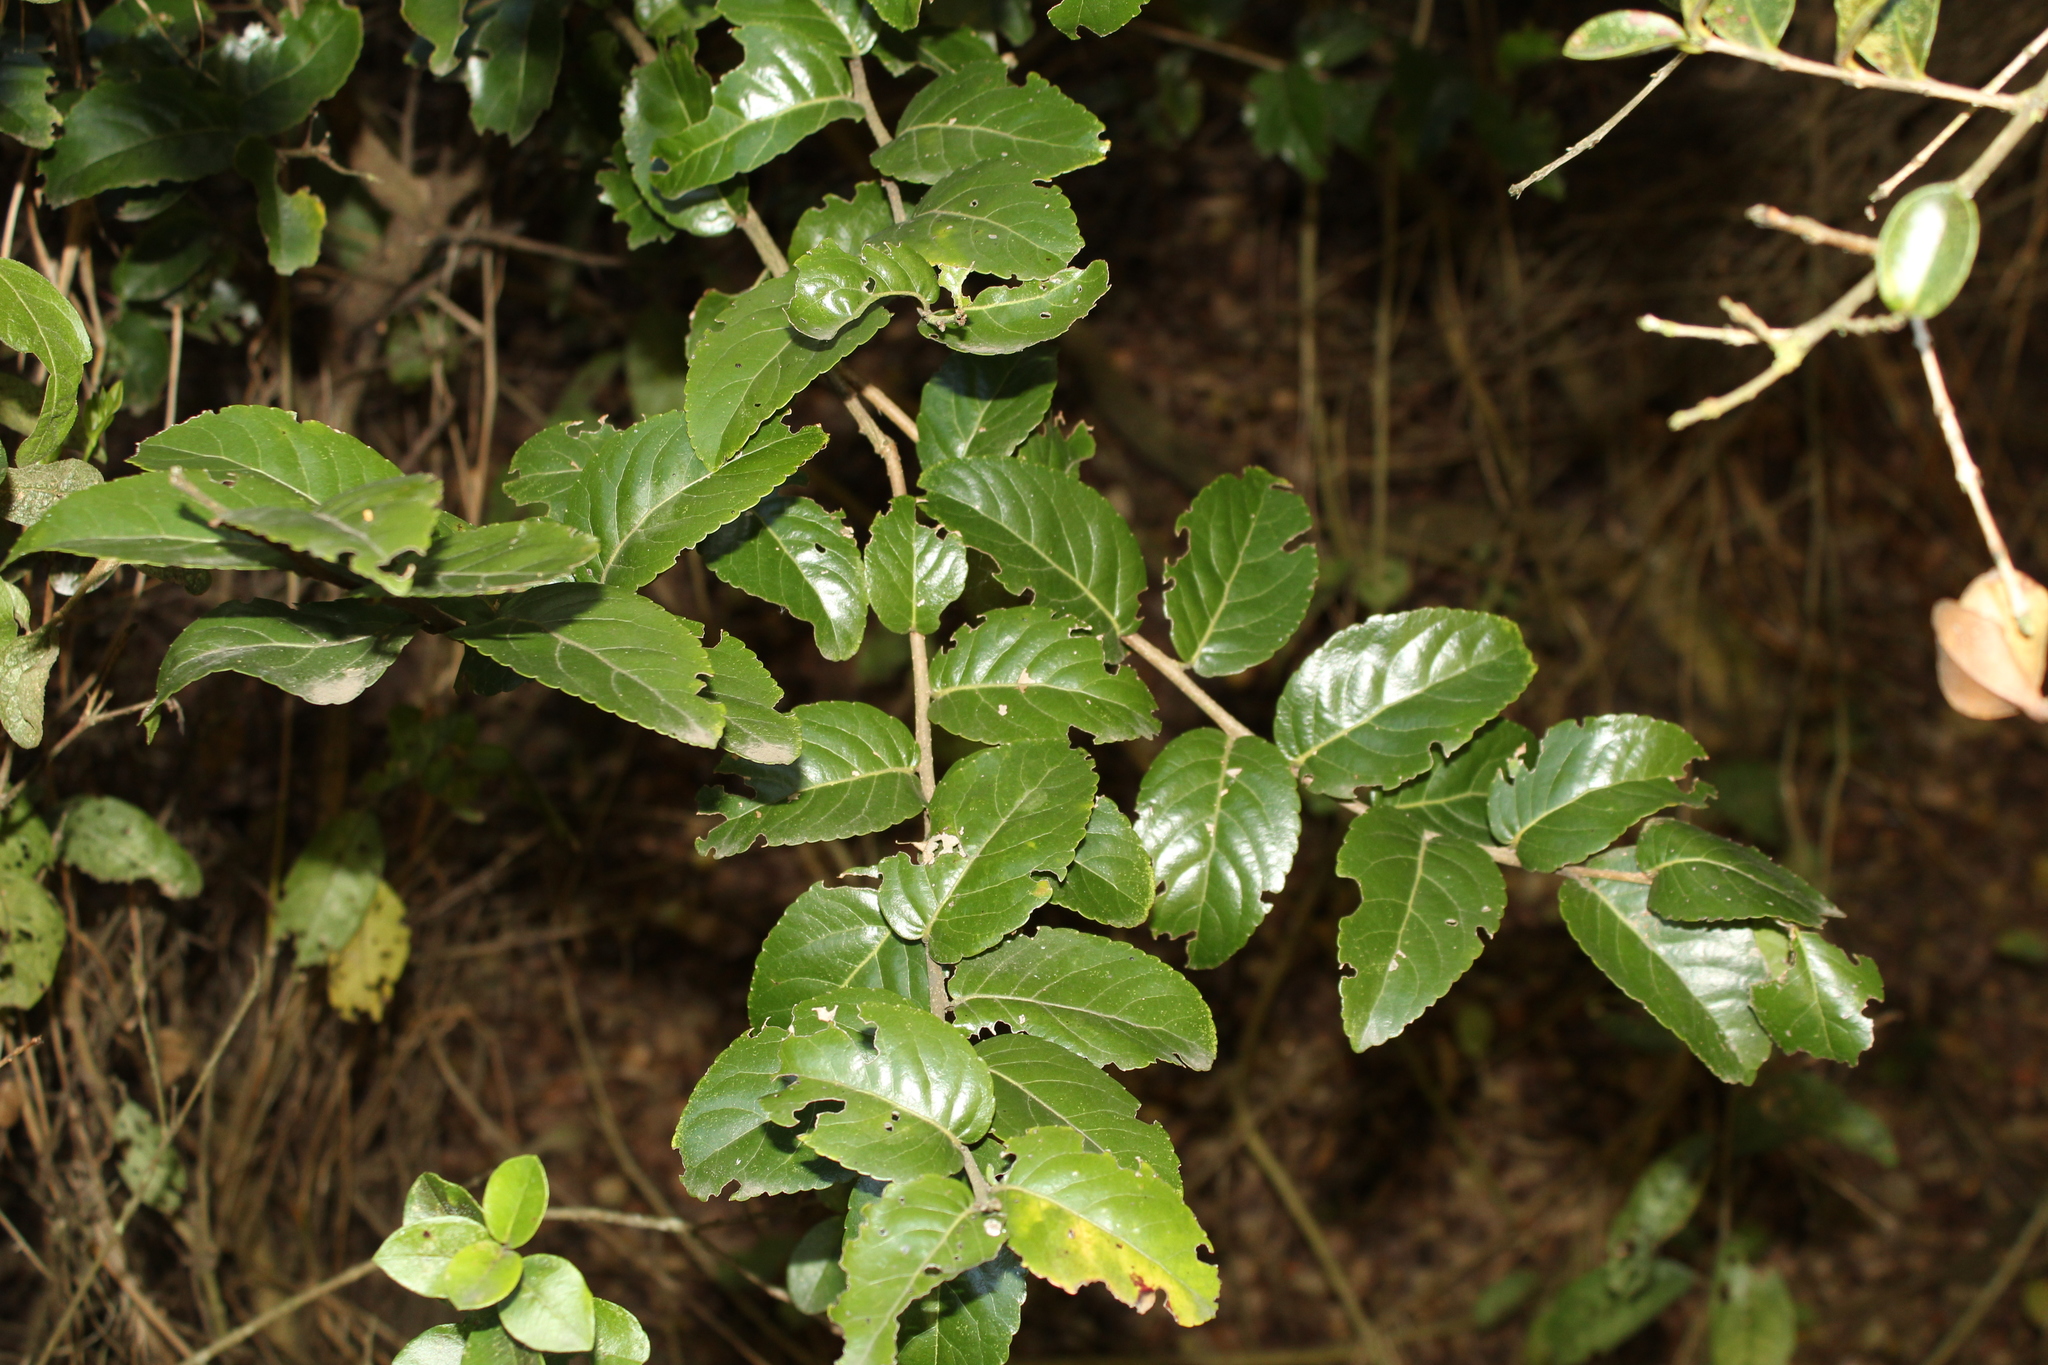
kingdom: Plantae
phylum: Tracheophyta
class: Magnoliopsida
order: Malpighiales
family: Salicaceae
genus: Xylosma
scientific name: Xylosma spiculifera
